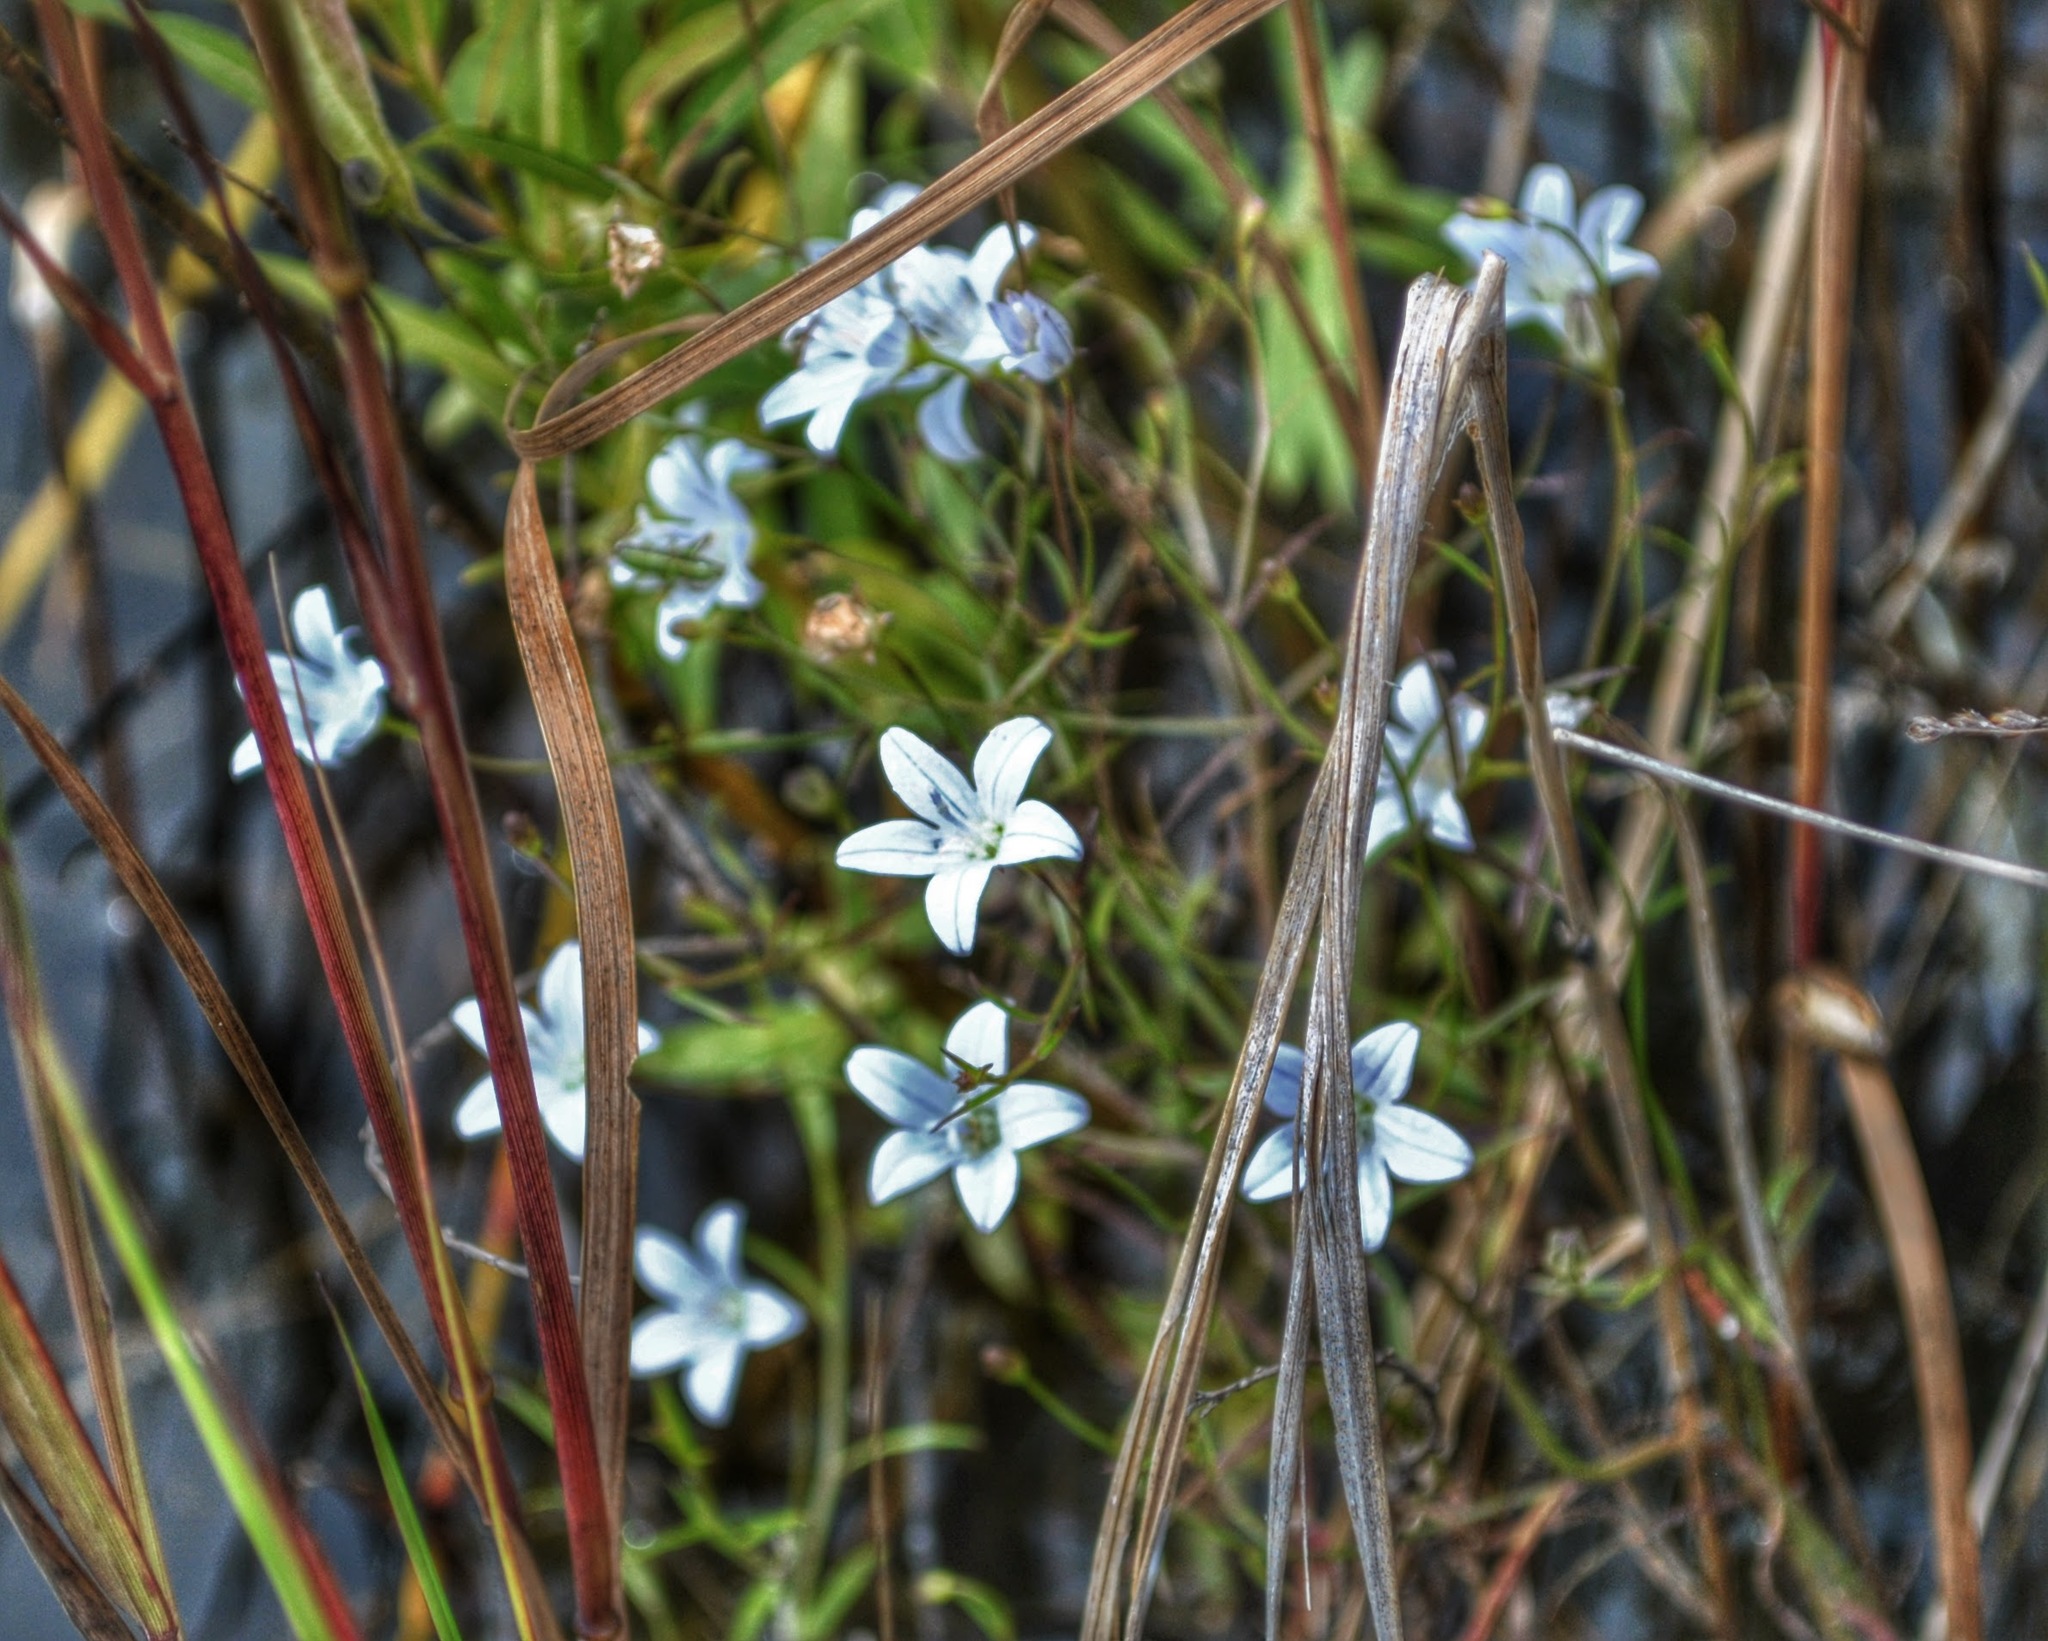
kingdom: Plantae
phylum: Tracheophyta
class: Magnoliopsida
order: Asterales
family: Campanulaceae
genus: Palustricodon
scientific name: Palustricodon aparinoides
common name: Bedstraw bellflower
